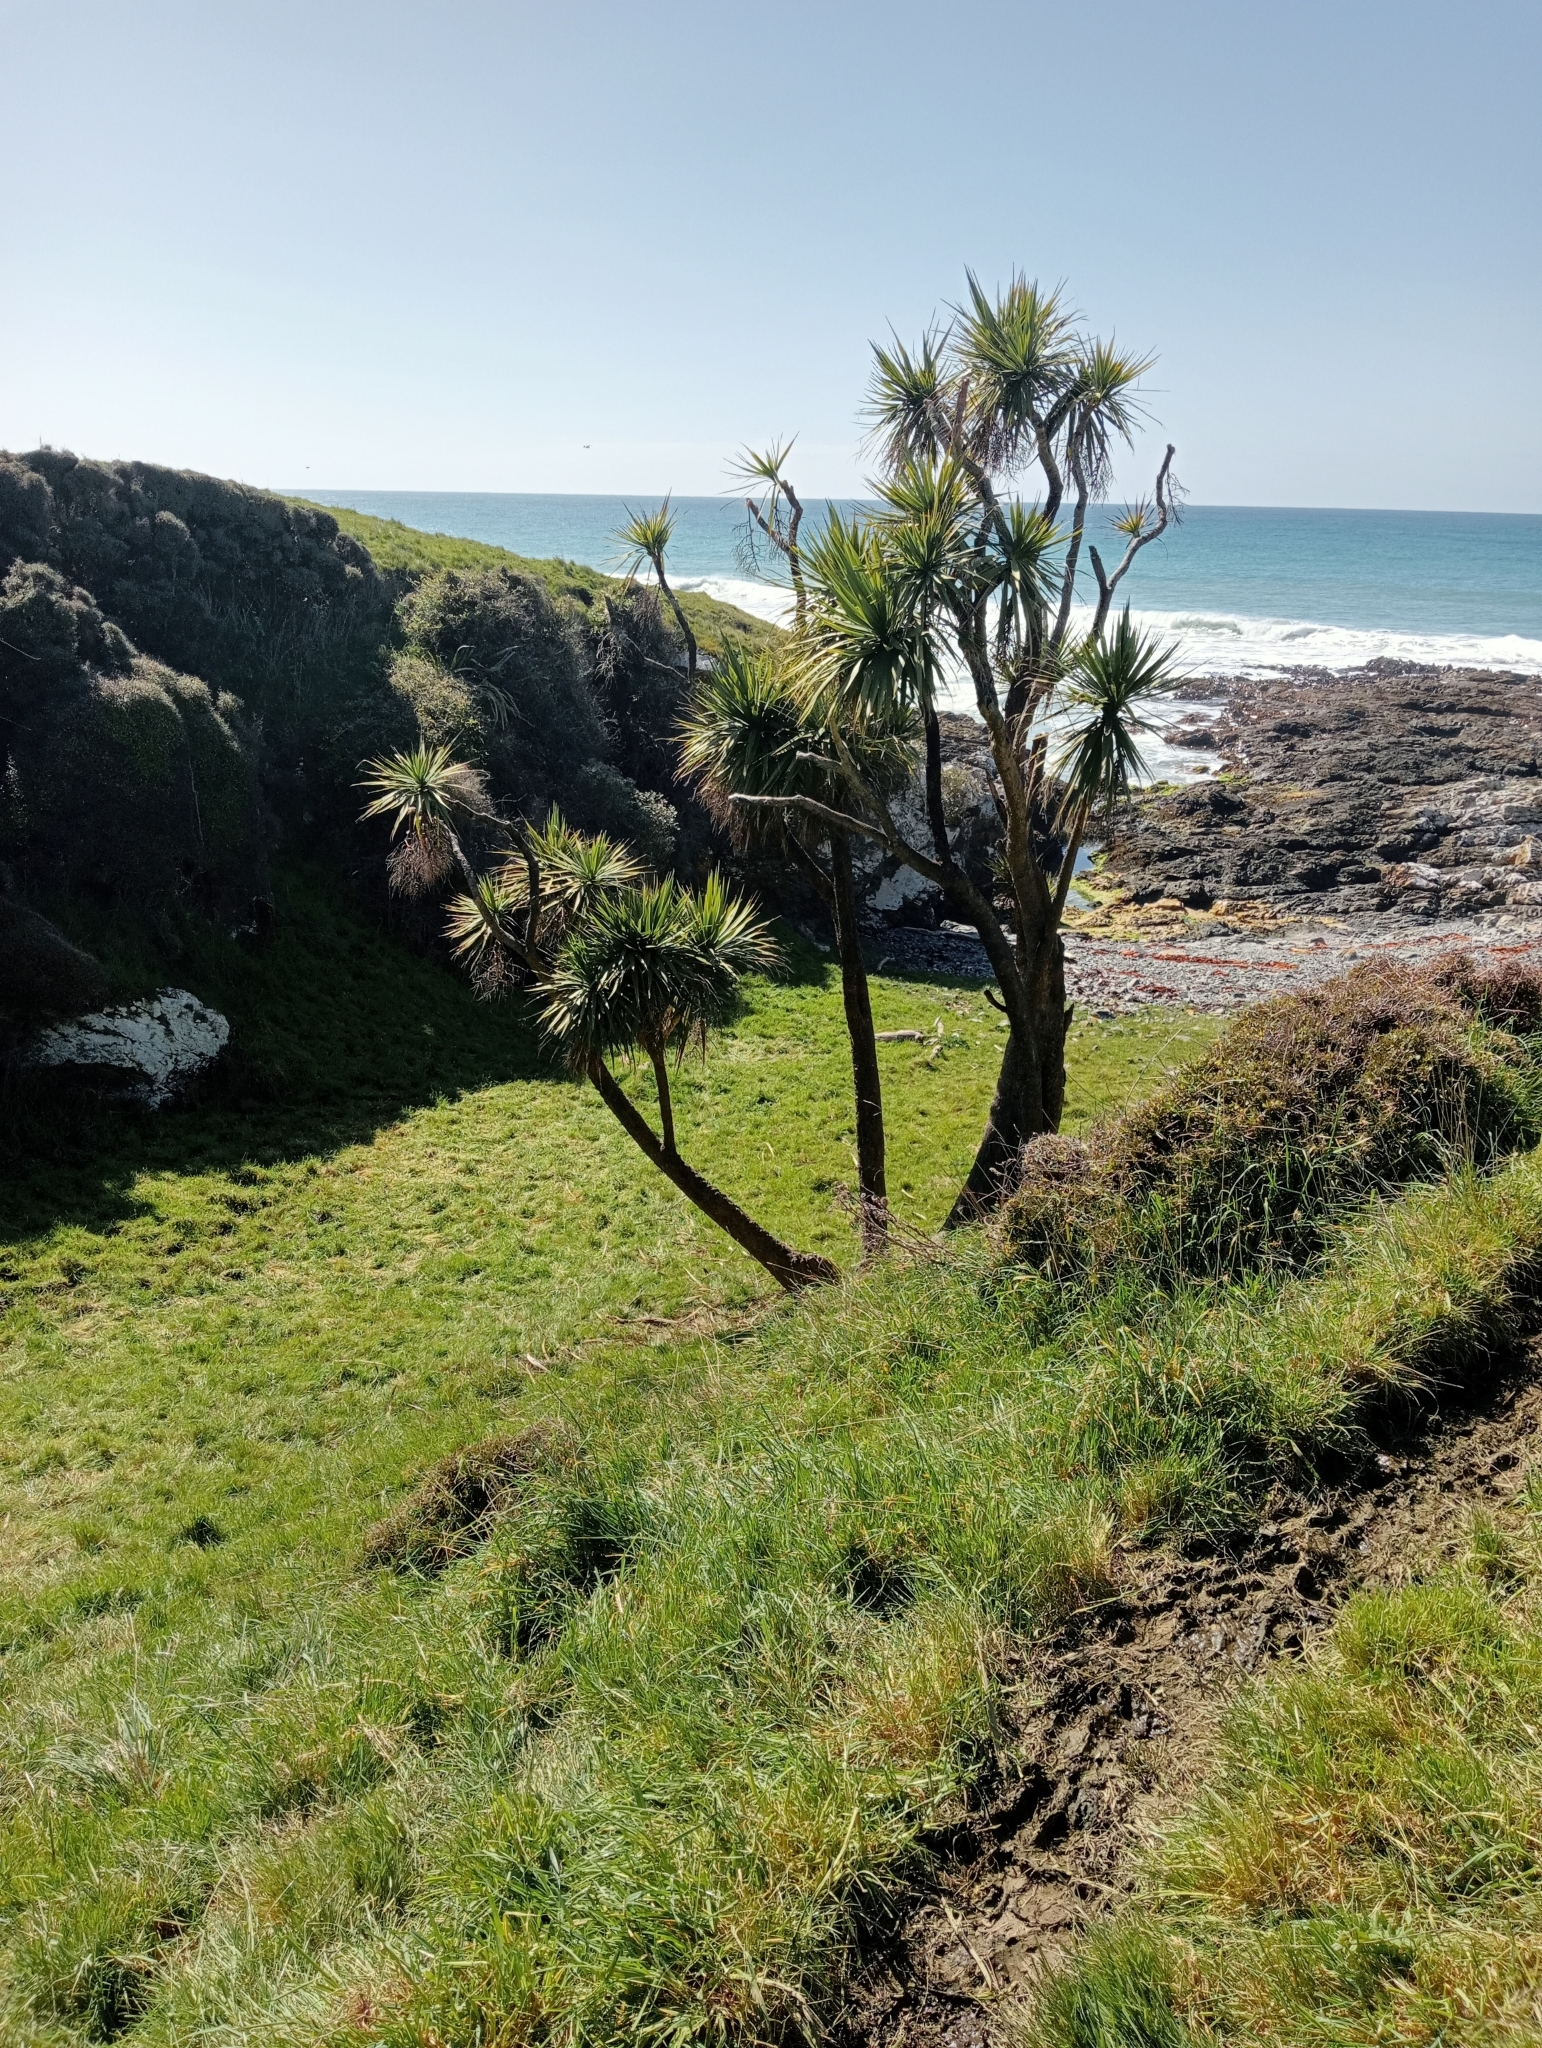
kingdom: Plantae
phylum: Tracheophyta
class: Liliopsida
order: Asparagales
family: Asparagaceae
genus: Cordyline
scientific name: Cordyline australis
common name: Cabbage-palm
